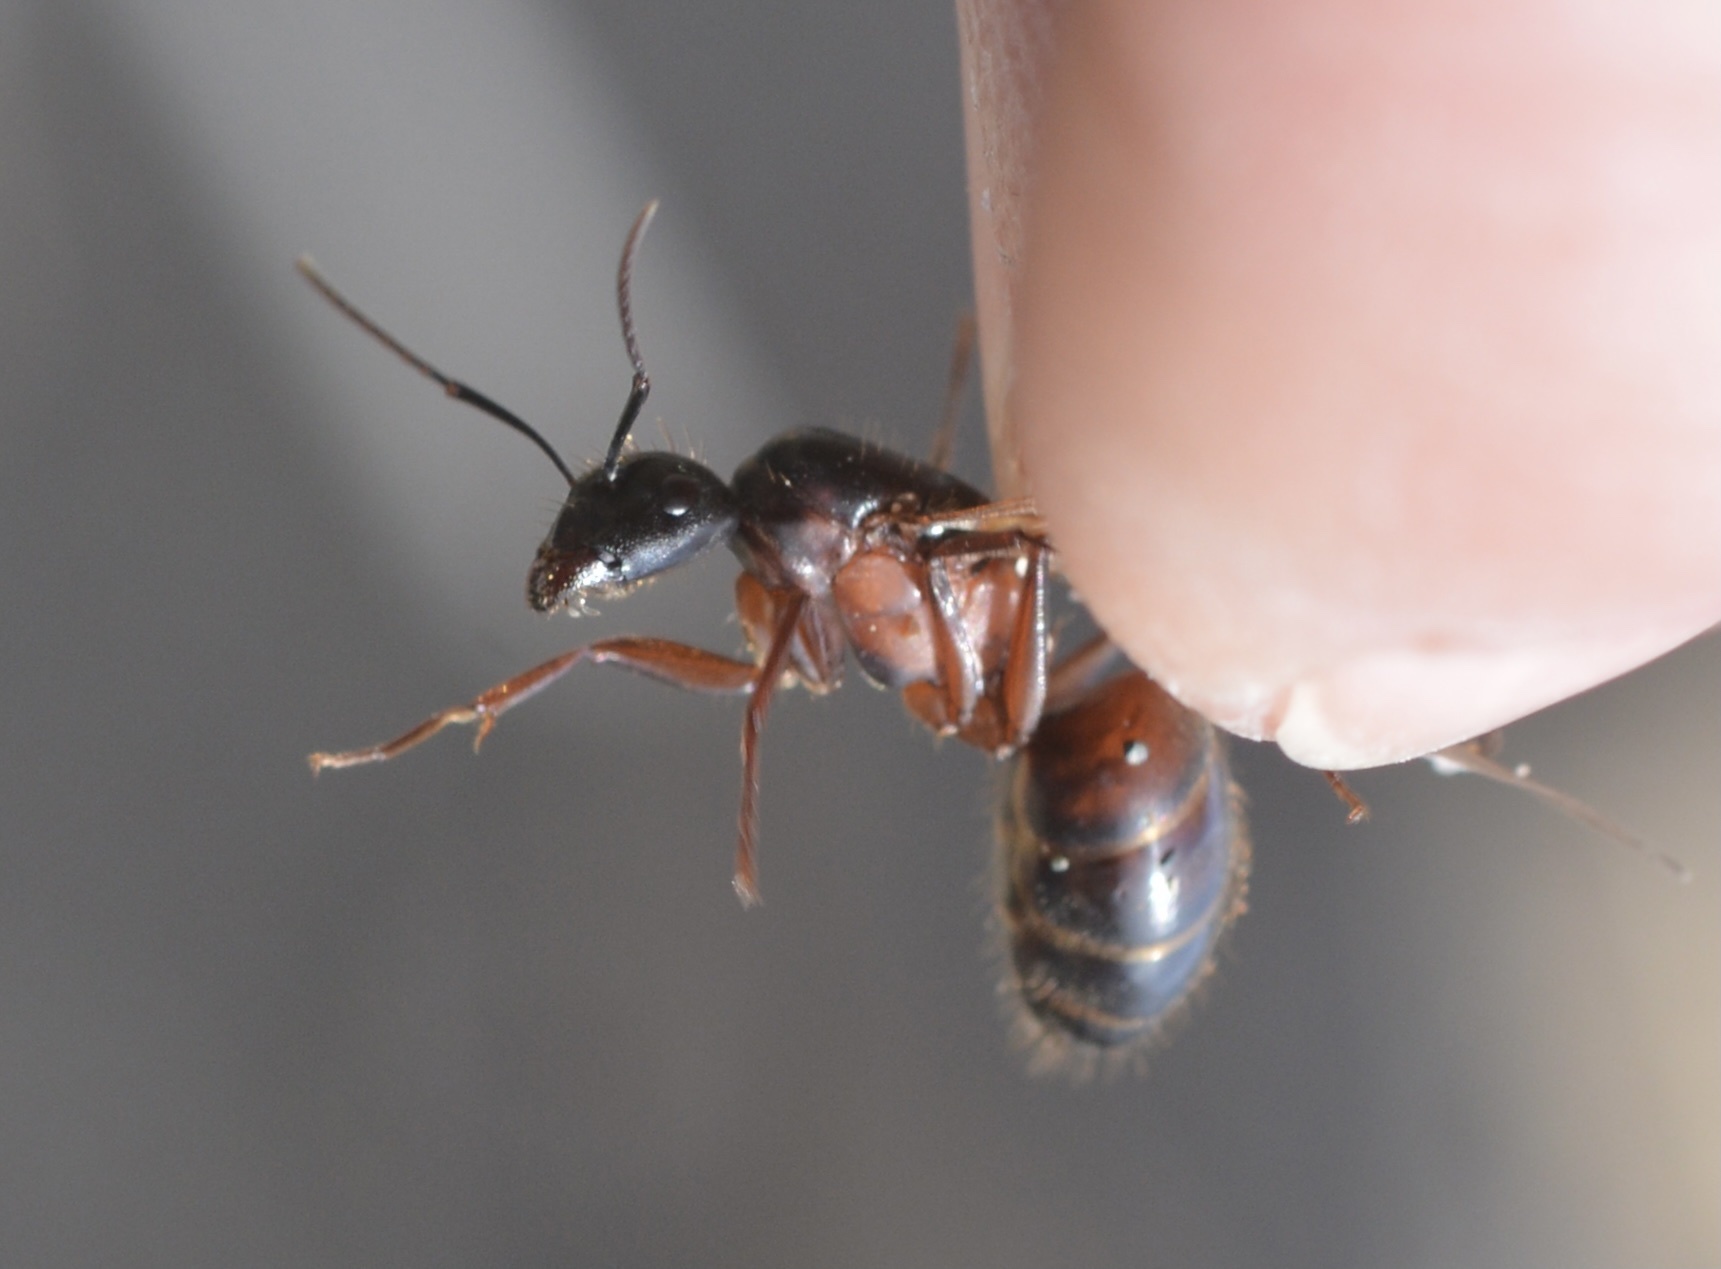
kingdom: Animalia
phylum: Arthropoda
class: Insecta
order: Hymenoptera
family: Formicidae
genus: Camponotus
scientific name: Camponotus vicinus
